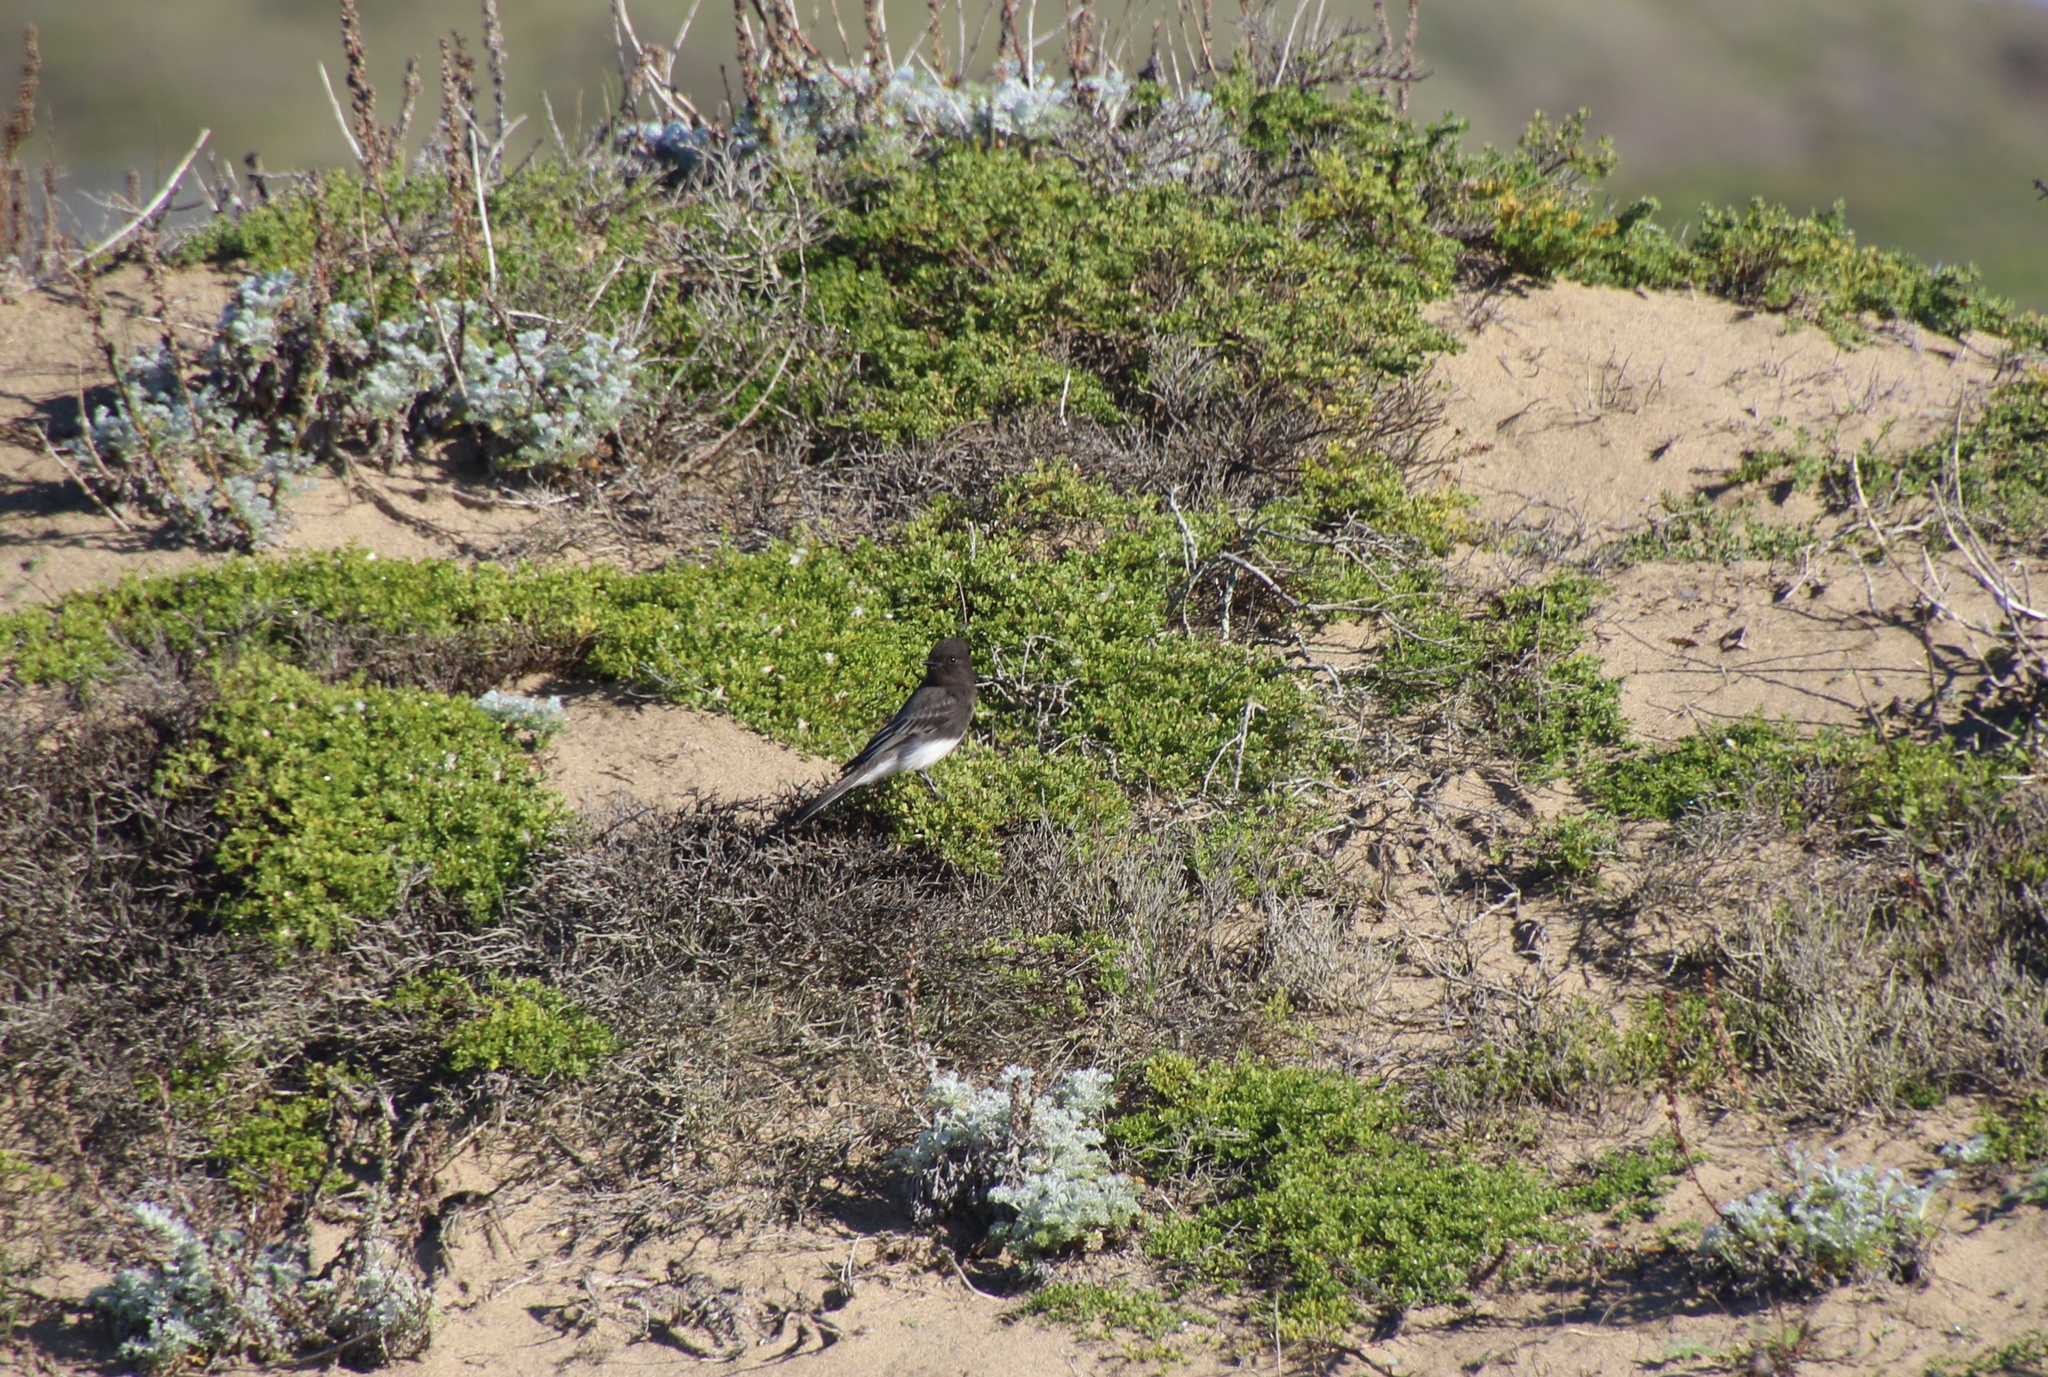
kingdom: Animalia
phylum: Chordata
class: Aves
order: Passeriformes
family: Tyrannidae
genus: Sayornis
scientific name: Sayornis nigricans
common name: Black phoebe
